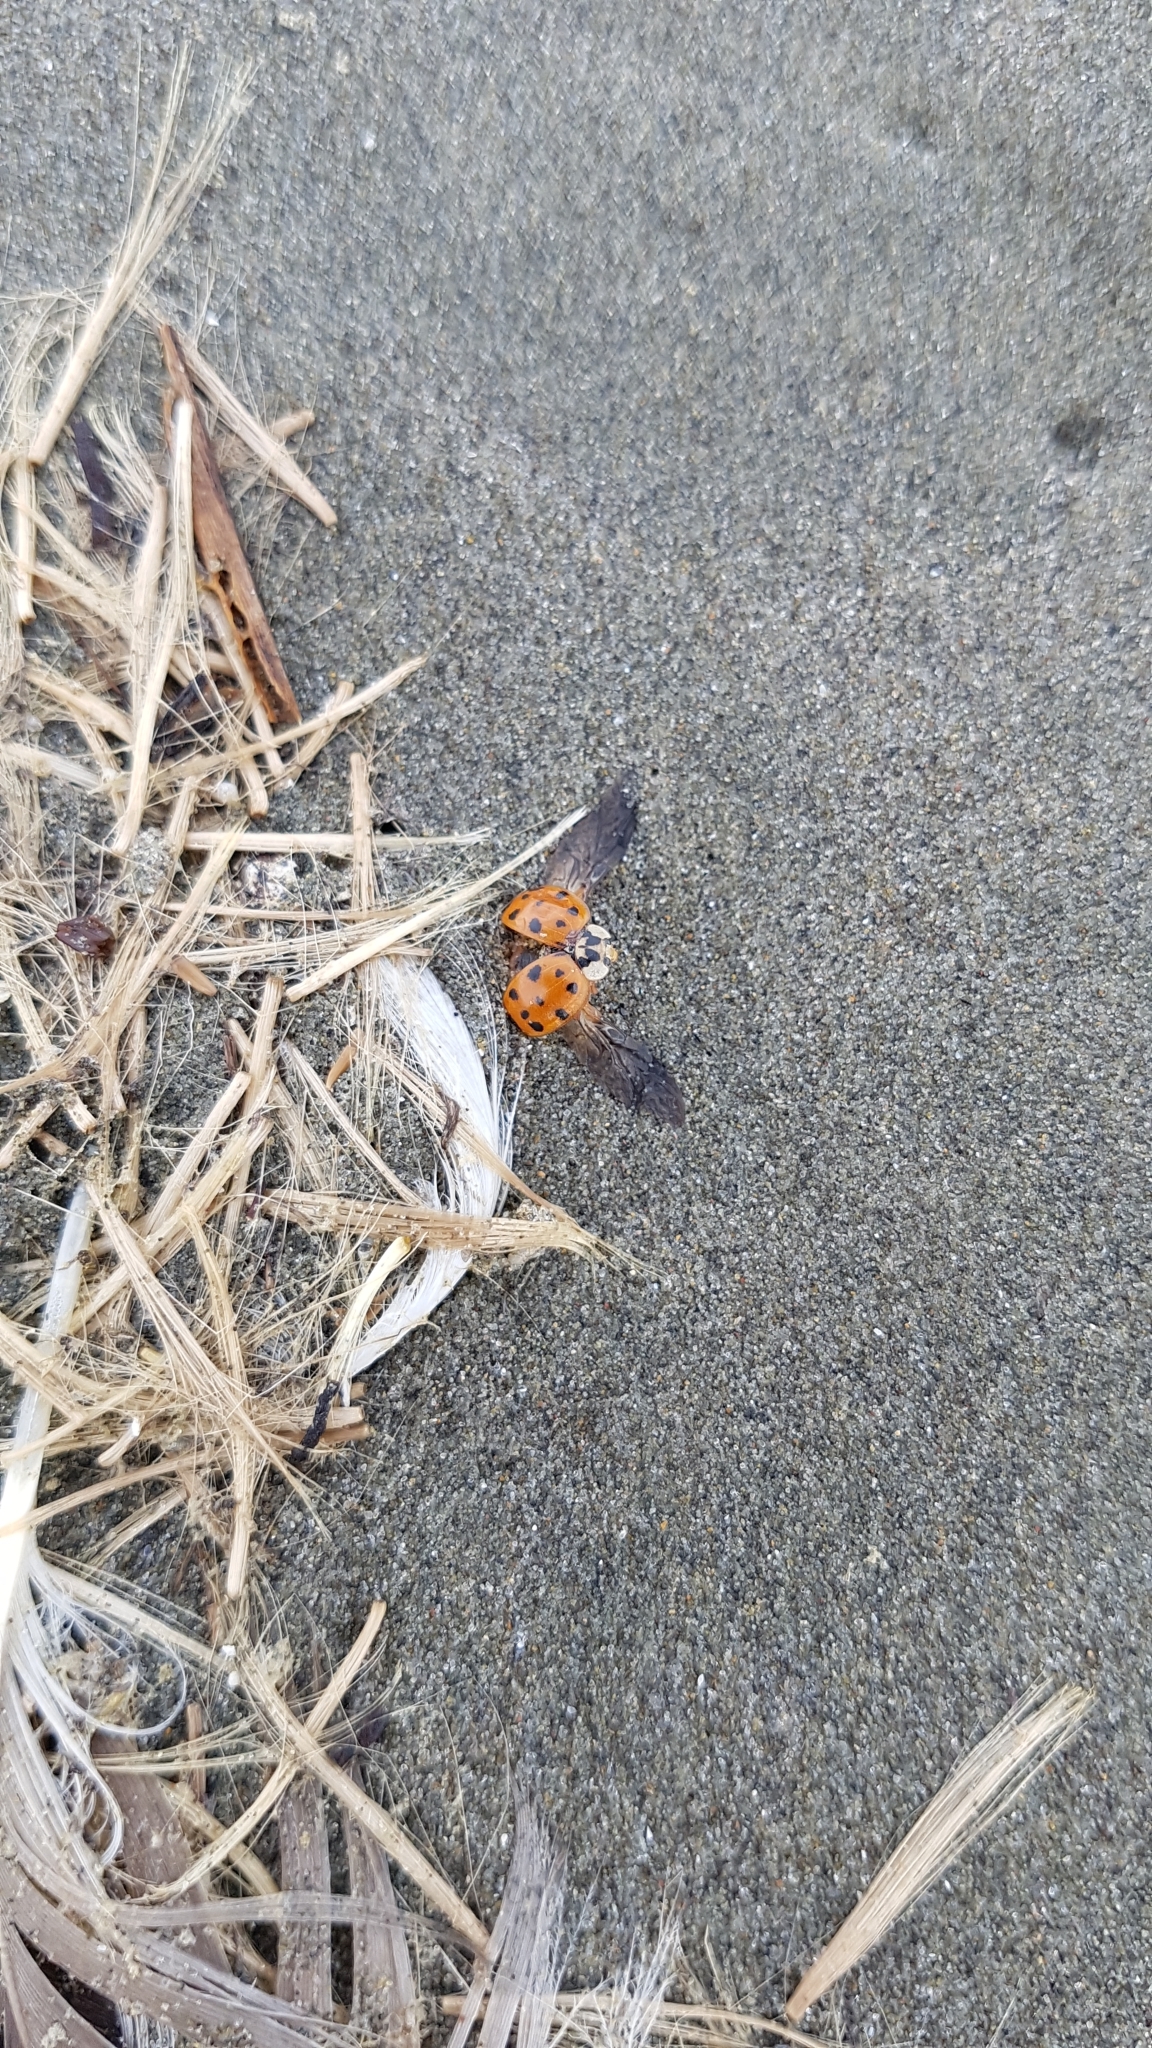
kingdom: Animalia
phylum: Arthropoda
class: Insecta
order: Coleoptera
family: Coccinellidae
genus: Harmonia
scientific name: Harmonia axyridis
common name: Harlequin ladybird
